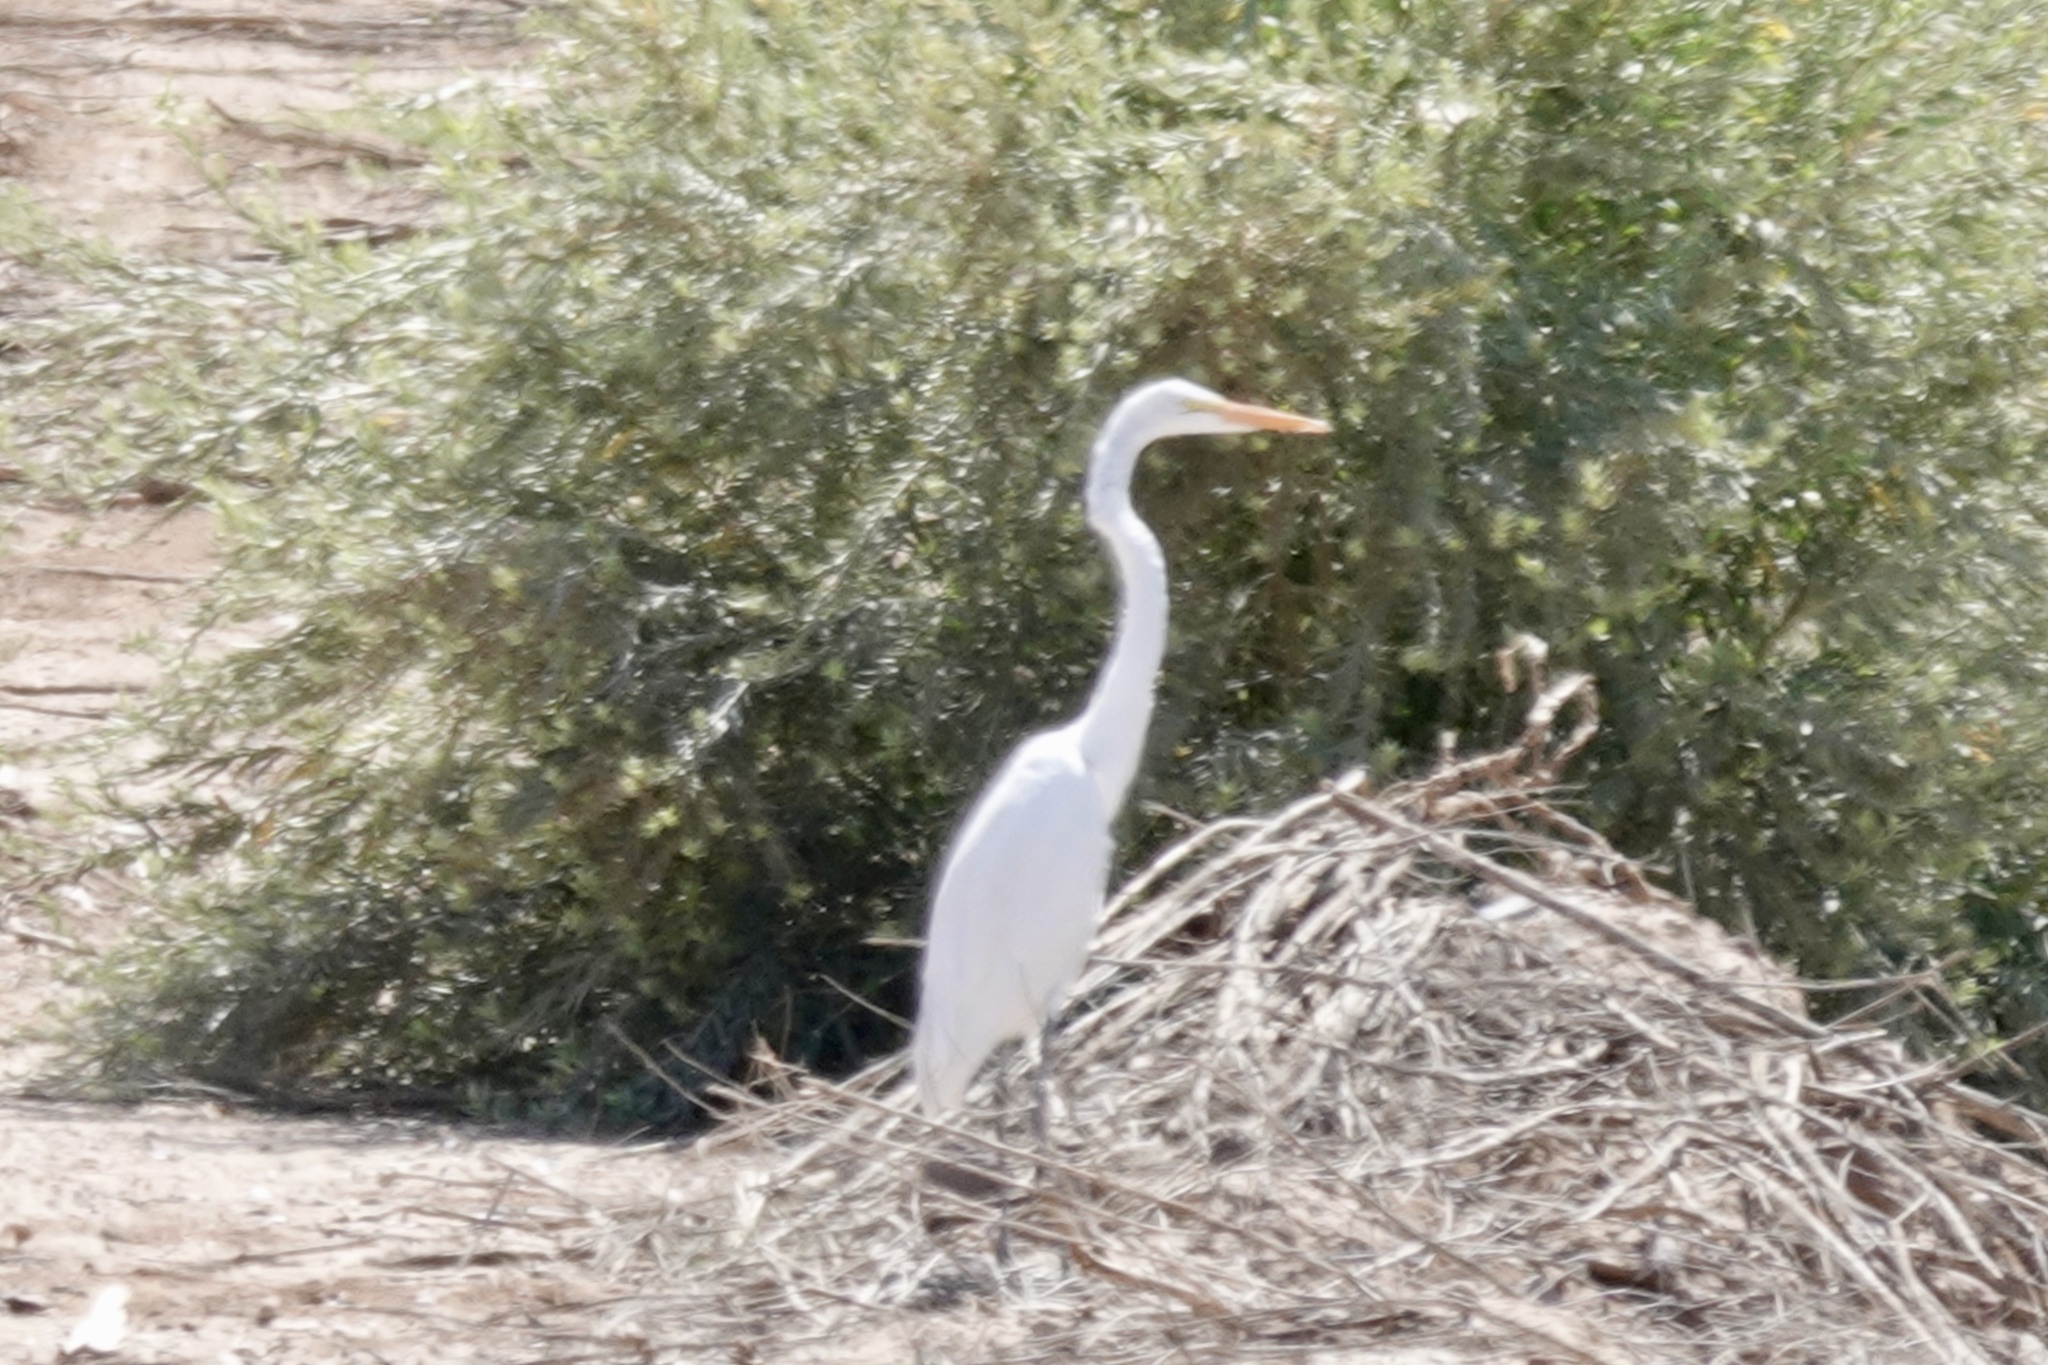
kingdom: Animalia
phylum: Chordata
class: Aves
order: Pelecaniformes
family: Ardeidae
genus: Ardea
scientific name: Ardea alba
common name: Great egret
